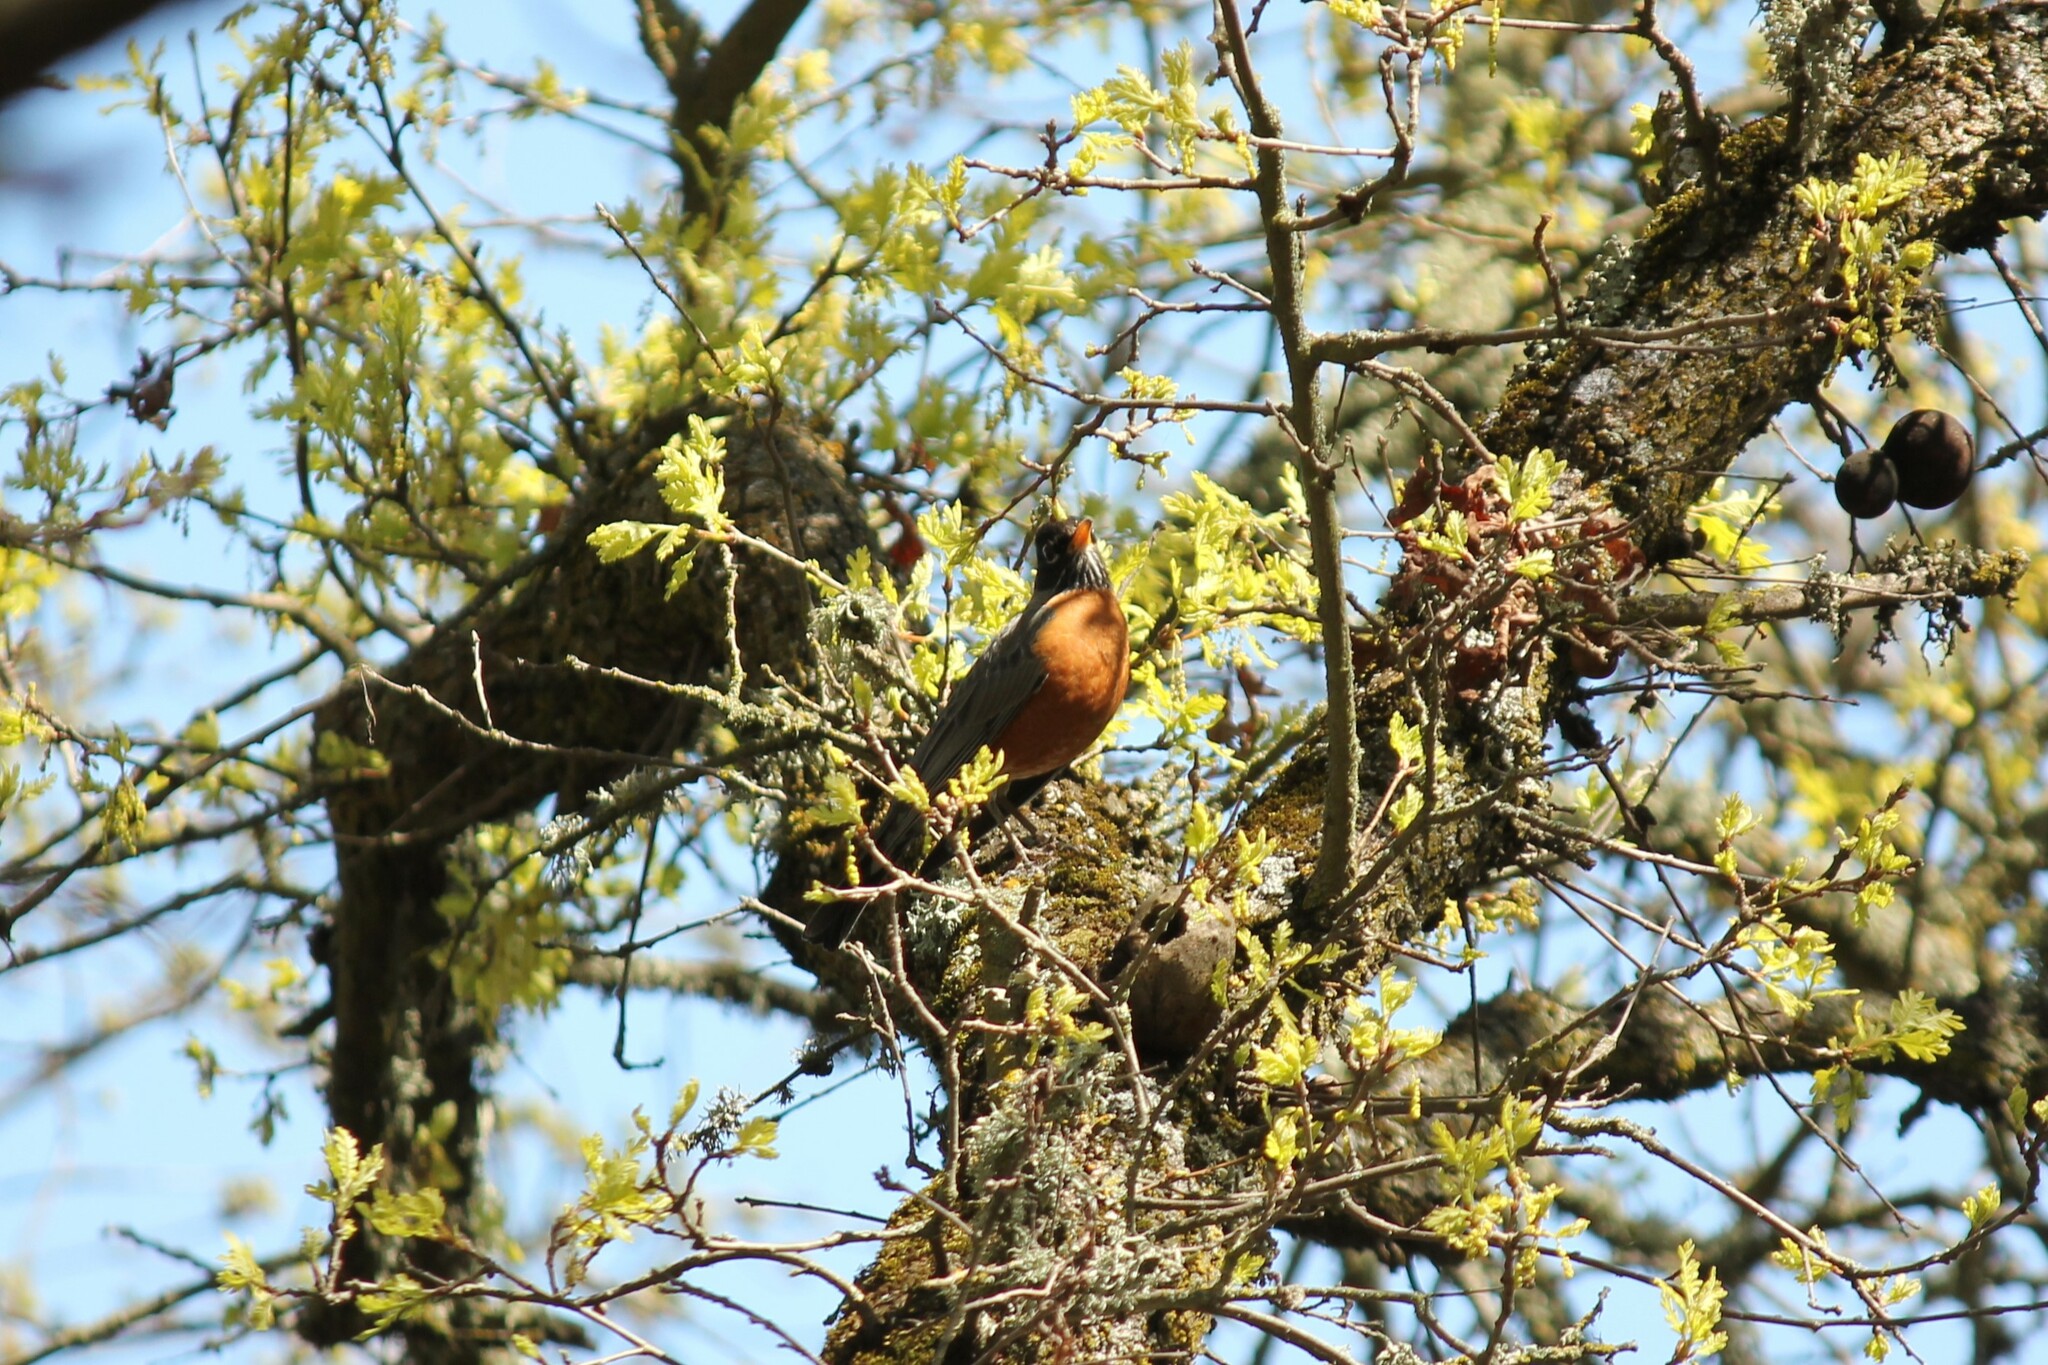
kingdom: Animalia
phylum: Chordata
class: Aves
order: Passeriformes
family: Turdidae
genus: Turdus
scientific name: Turdus migratorius
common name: American robin
